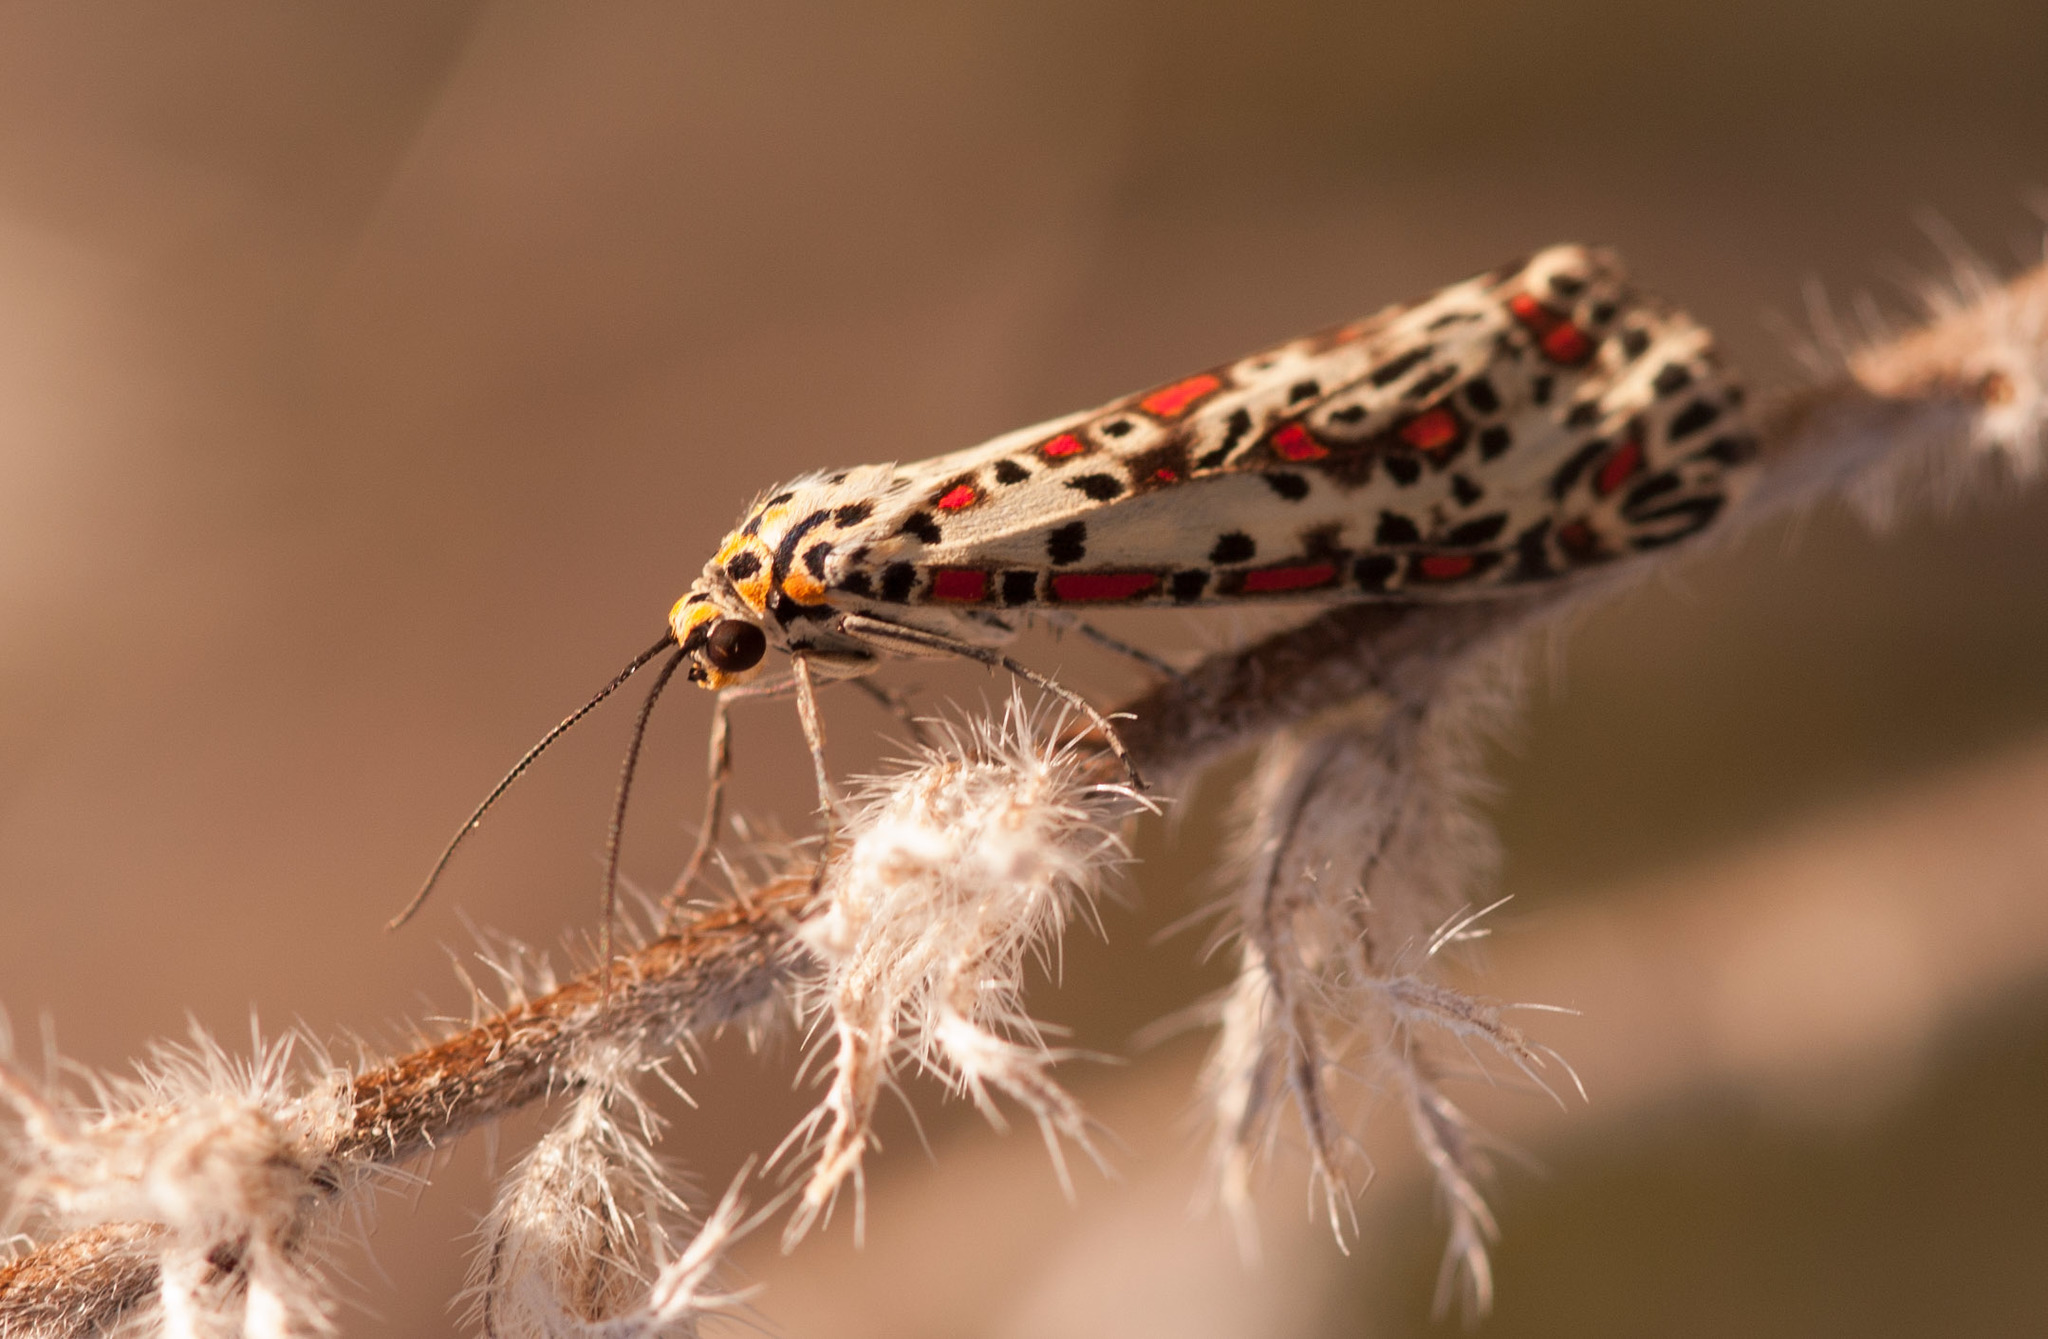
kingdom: Animalia
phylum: Arthropoda
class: Insecta
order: Lepidoptera
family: Erebidae
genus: Utetheisa
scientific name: Utetheisa pulchelloides
